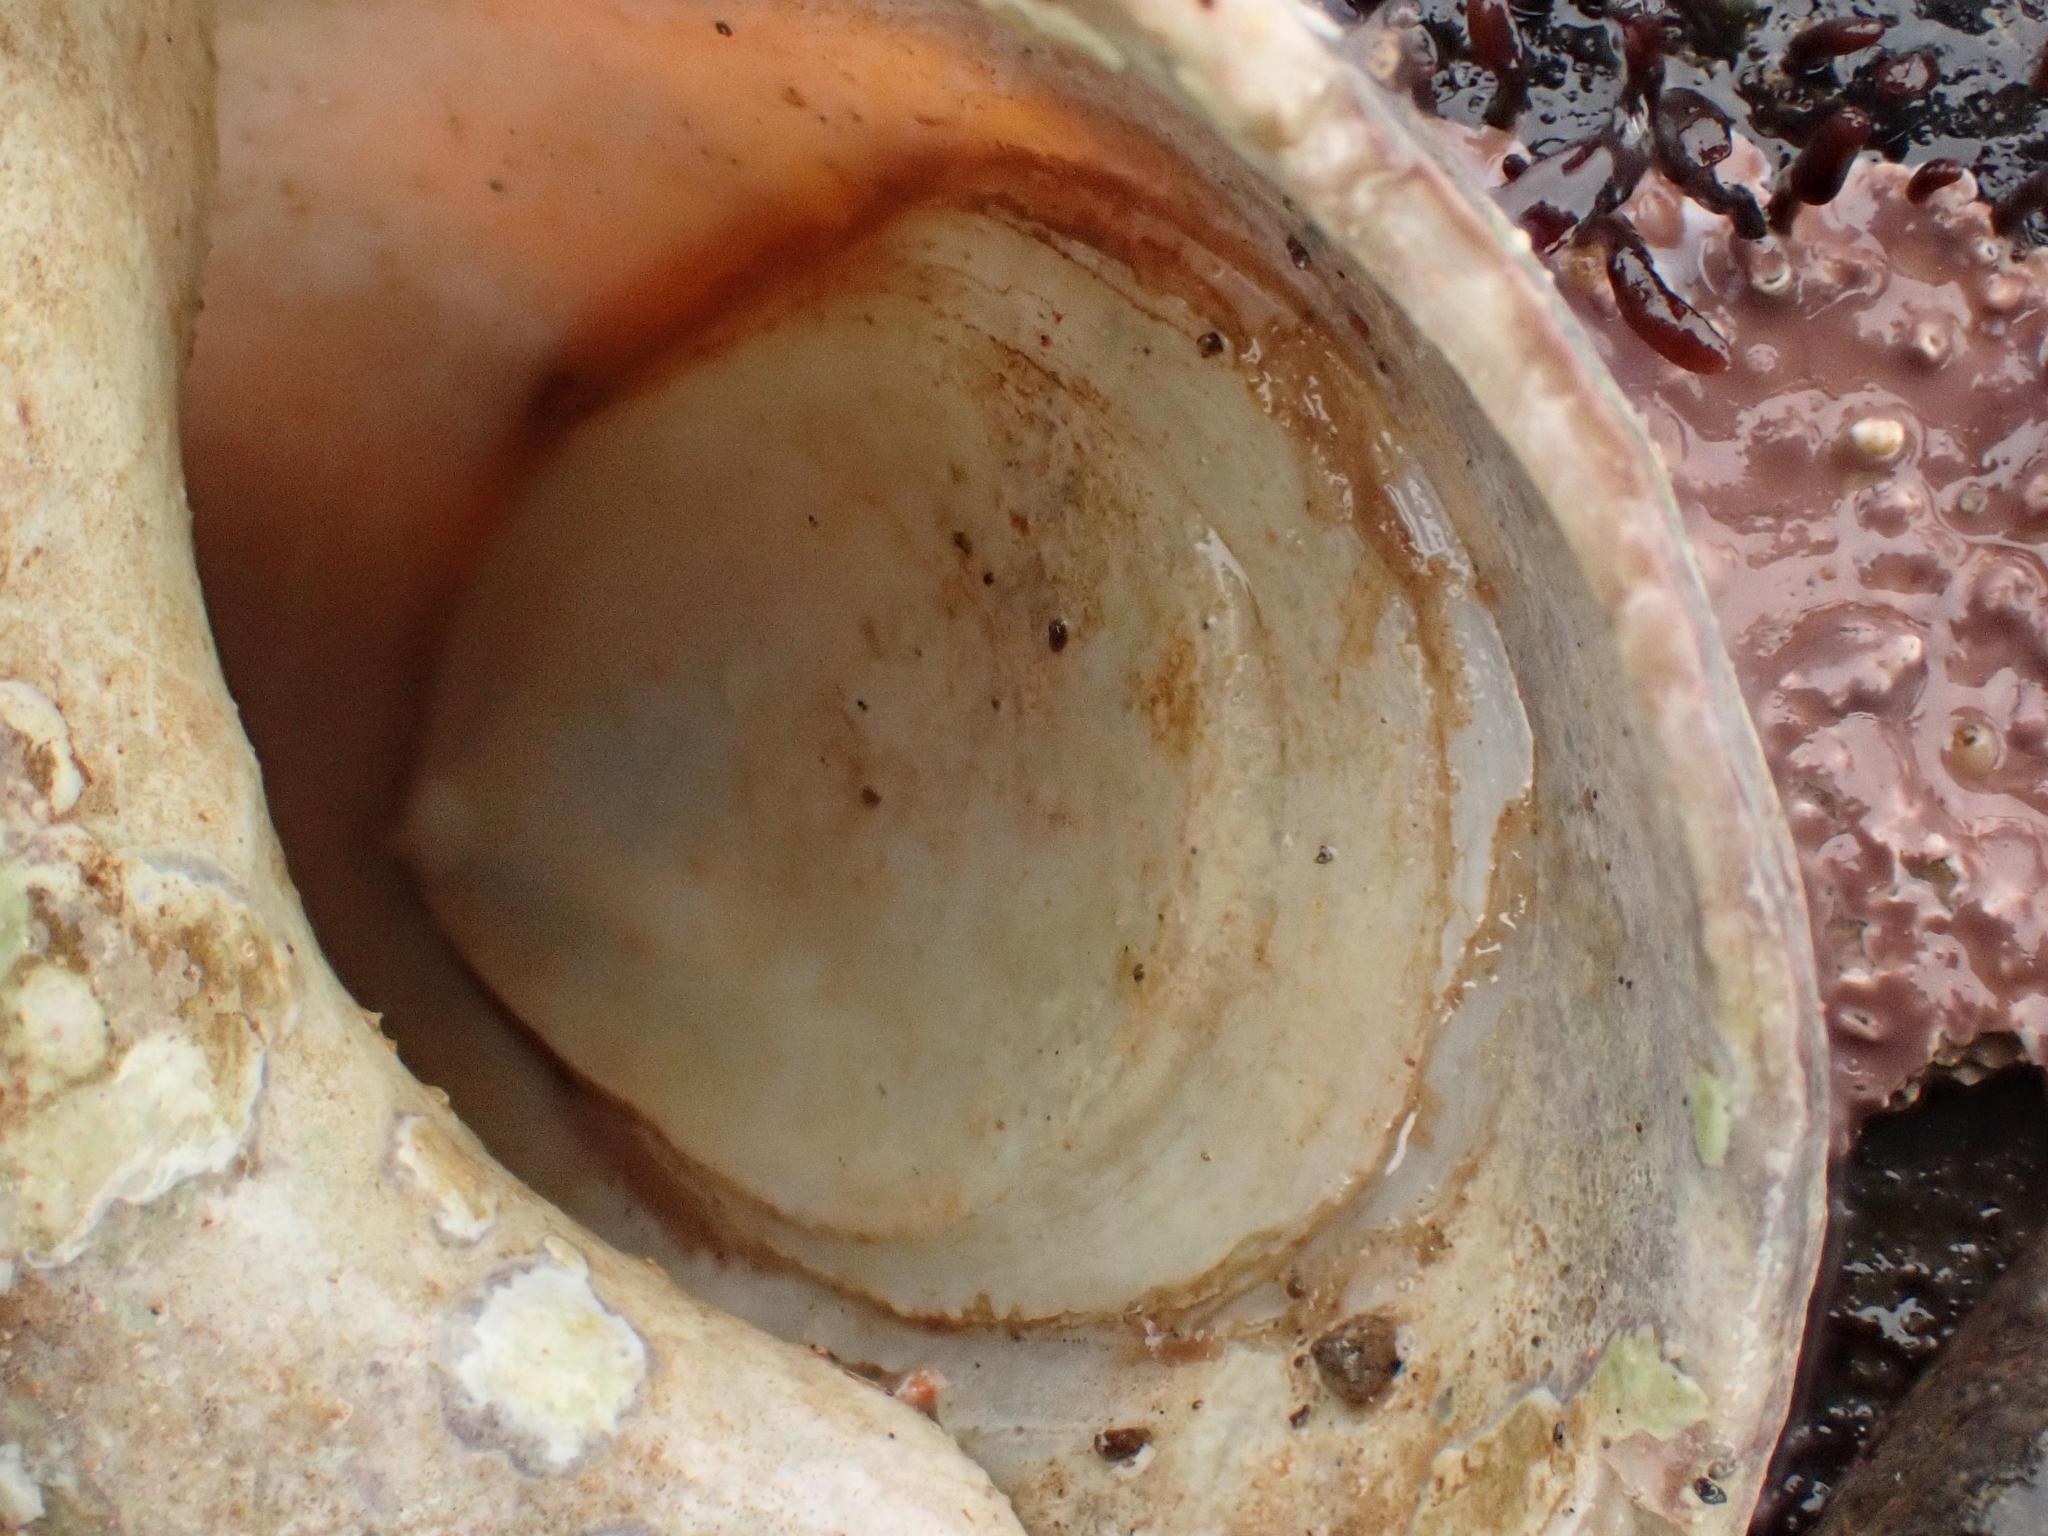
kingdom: Animalia
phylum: Mollusca
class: Gastropoda
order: Littorinimorpha
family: Calyptraeidae
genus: Crepidula
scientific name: Crepidula plana
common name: Eastern white slippersnail
